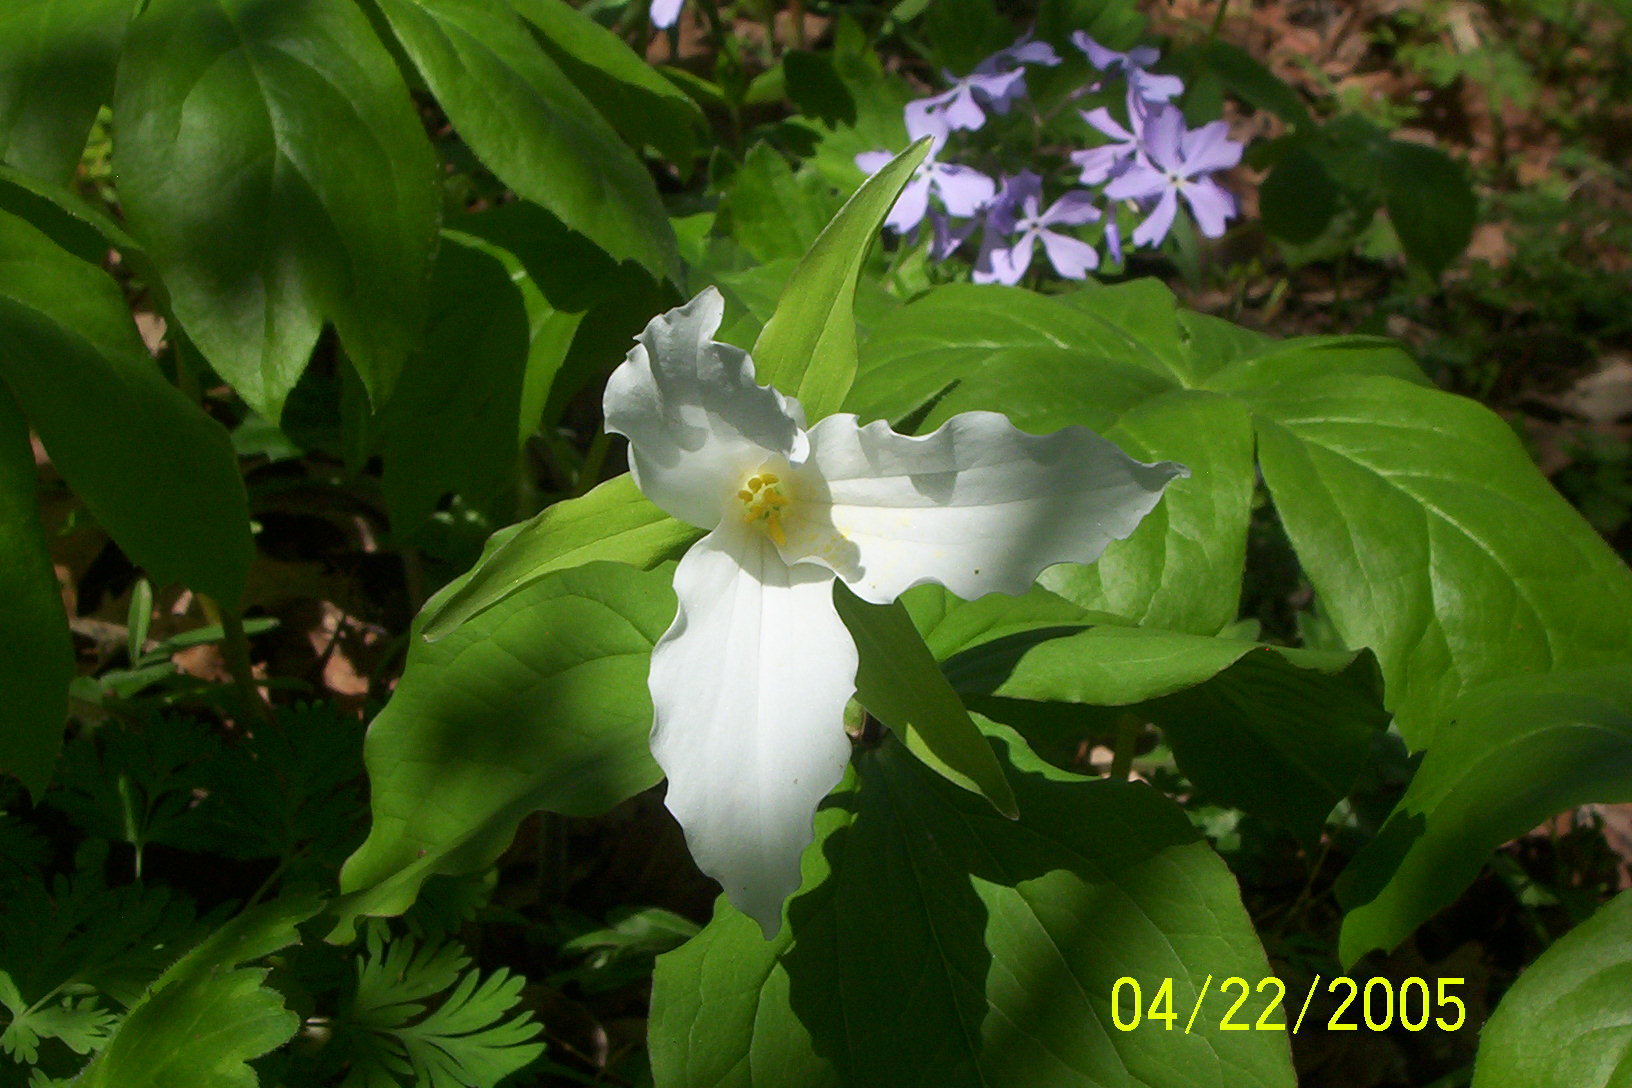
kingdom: Plantae
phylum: Tracheophyta
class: Liliopsida
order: Liliales
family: Melanthiaceae
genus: Trillium
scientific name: Trillium grandiflorum
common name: Great white trillium
